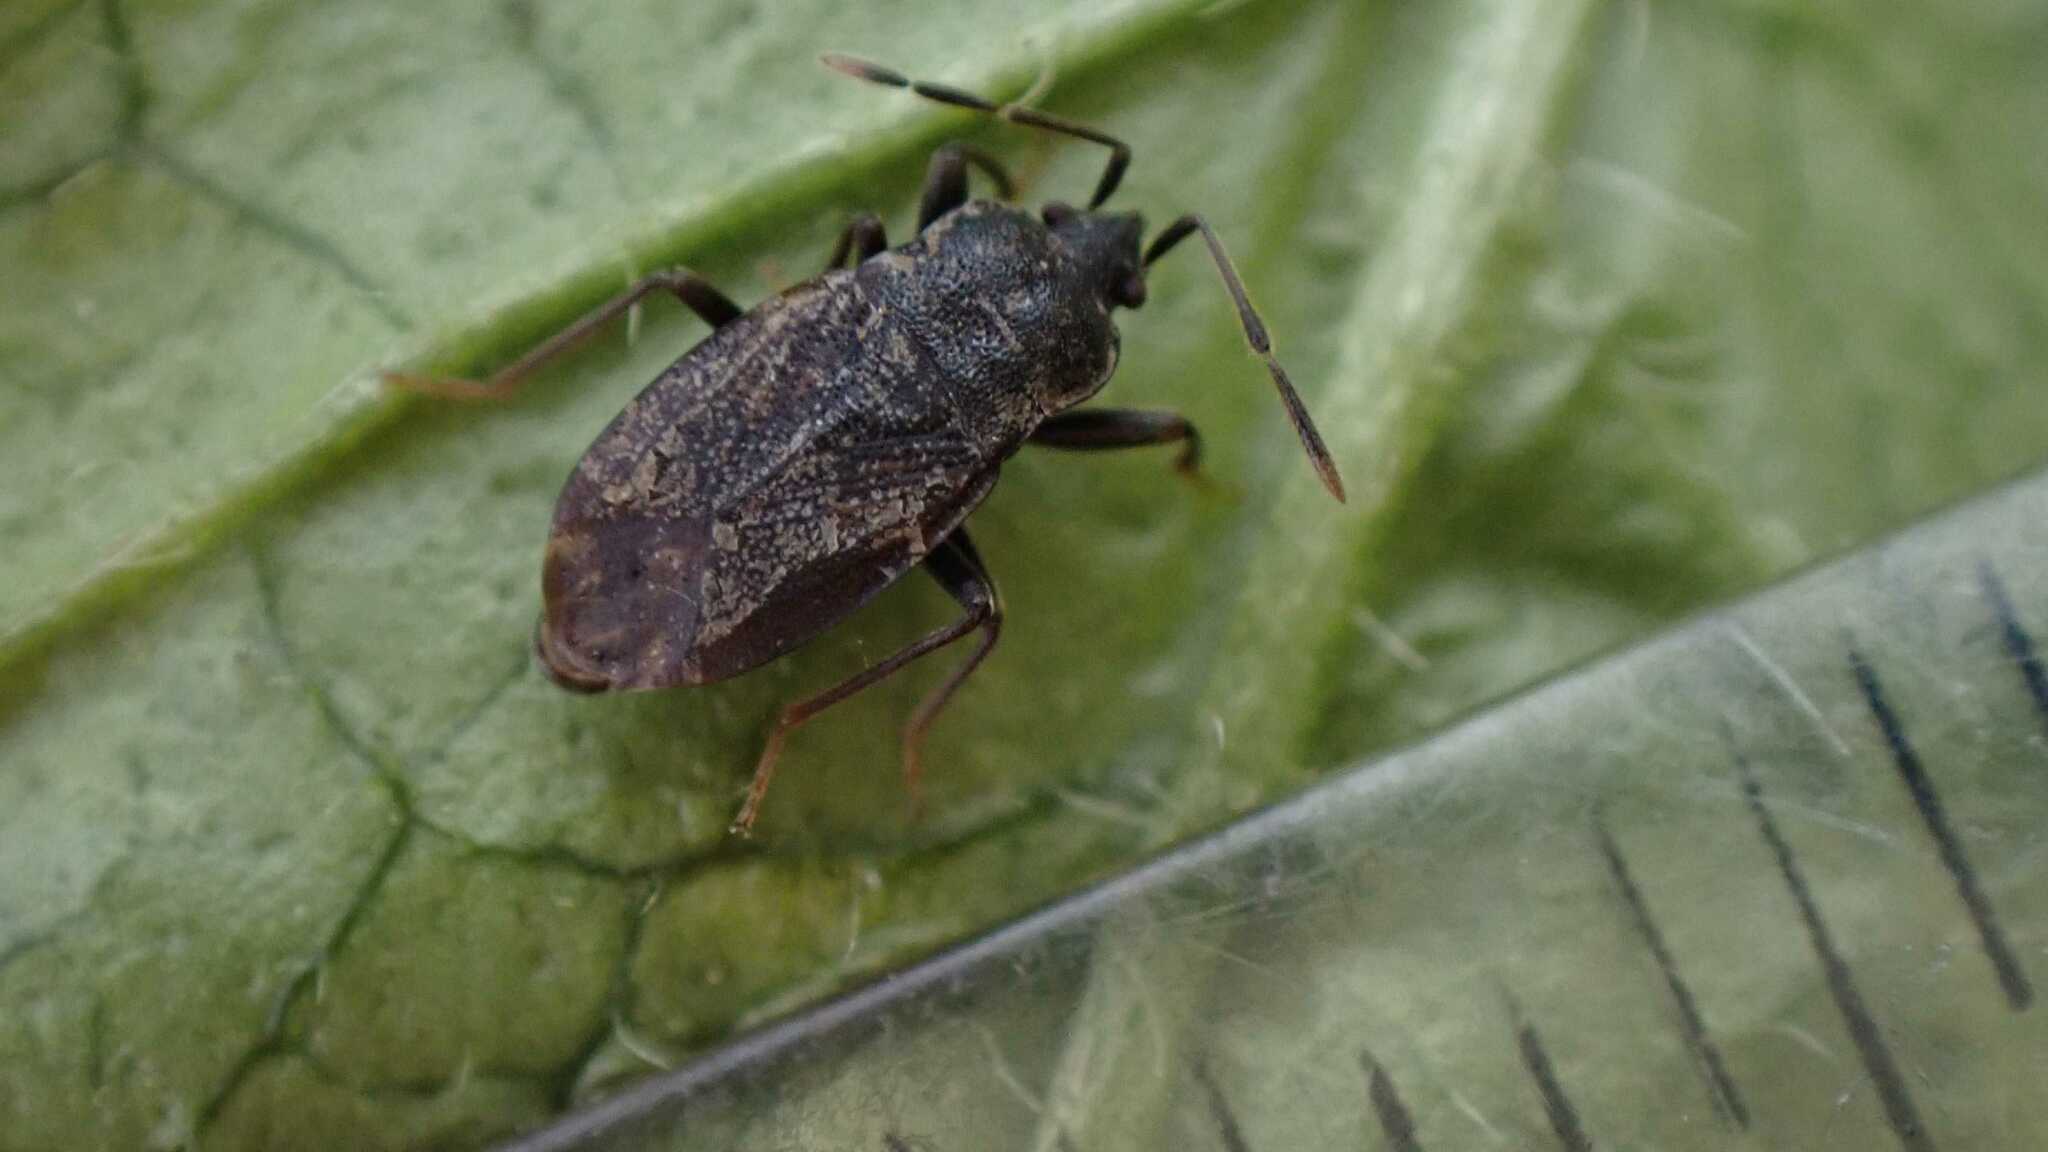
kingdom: Animalia
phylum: Arthropoda
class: Insecta
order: Hemiptera
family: Rhyparochromidae
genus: Drymus
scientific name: Drymus brunneus
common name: Seed bug
